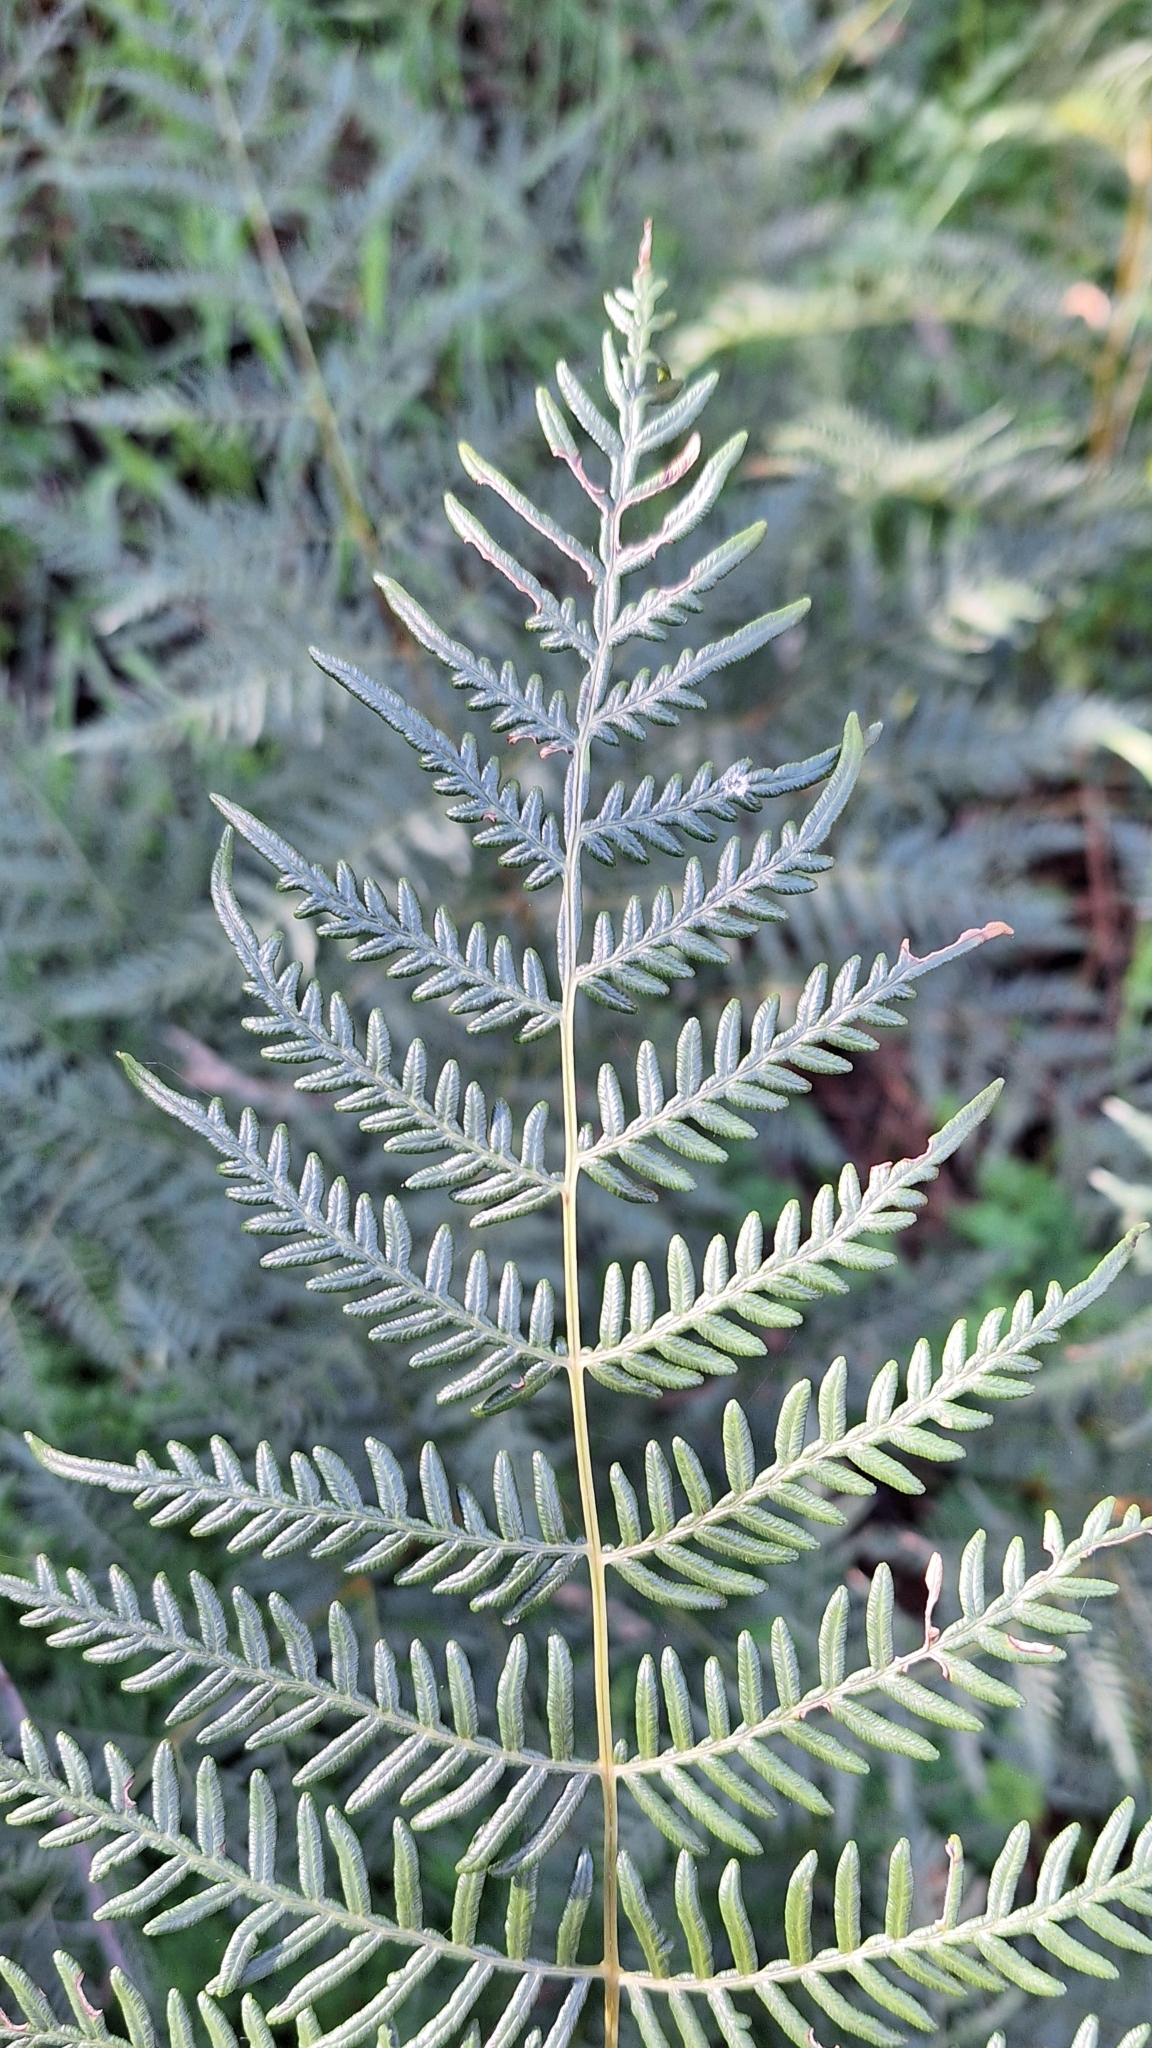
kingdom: Plantae
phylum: Tracheophyta
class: Polypodiopsida
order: Polypodiales
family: Dennstaedtiaceae
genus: Pteridium
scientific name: Pteridium esculentum
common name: Bracken fern
